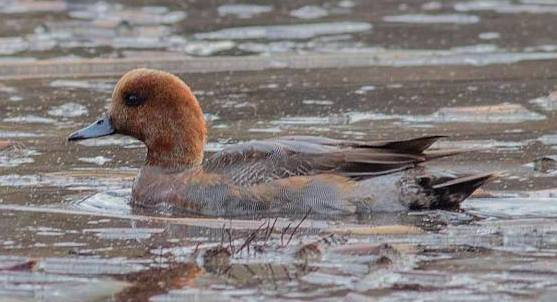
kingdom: Animalia
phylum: Chordata
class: Aves
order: Anseriformes
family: Anatidae
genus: Mareca
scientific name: Mareca penelope
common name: Eurasian wigeon
